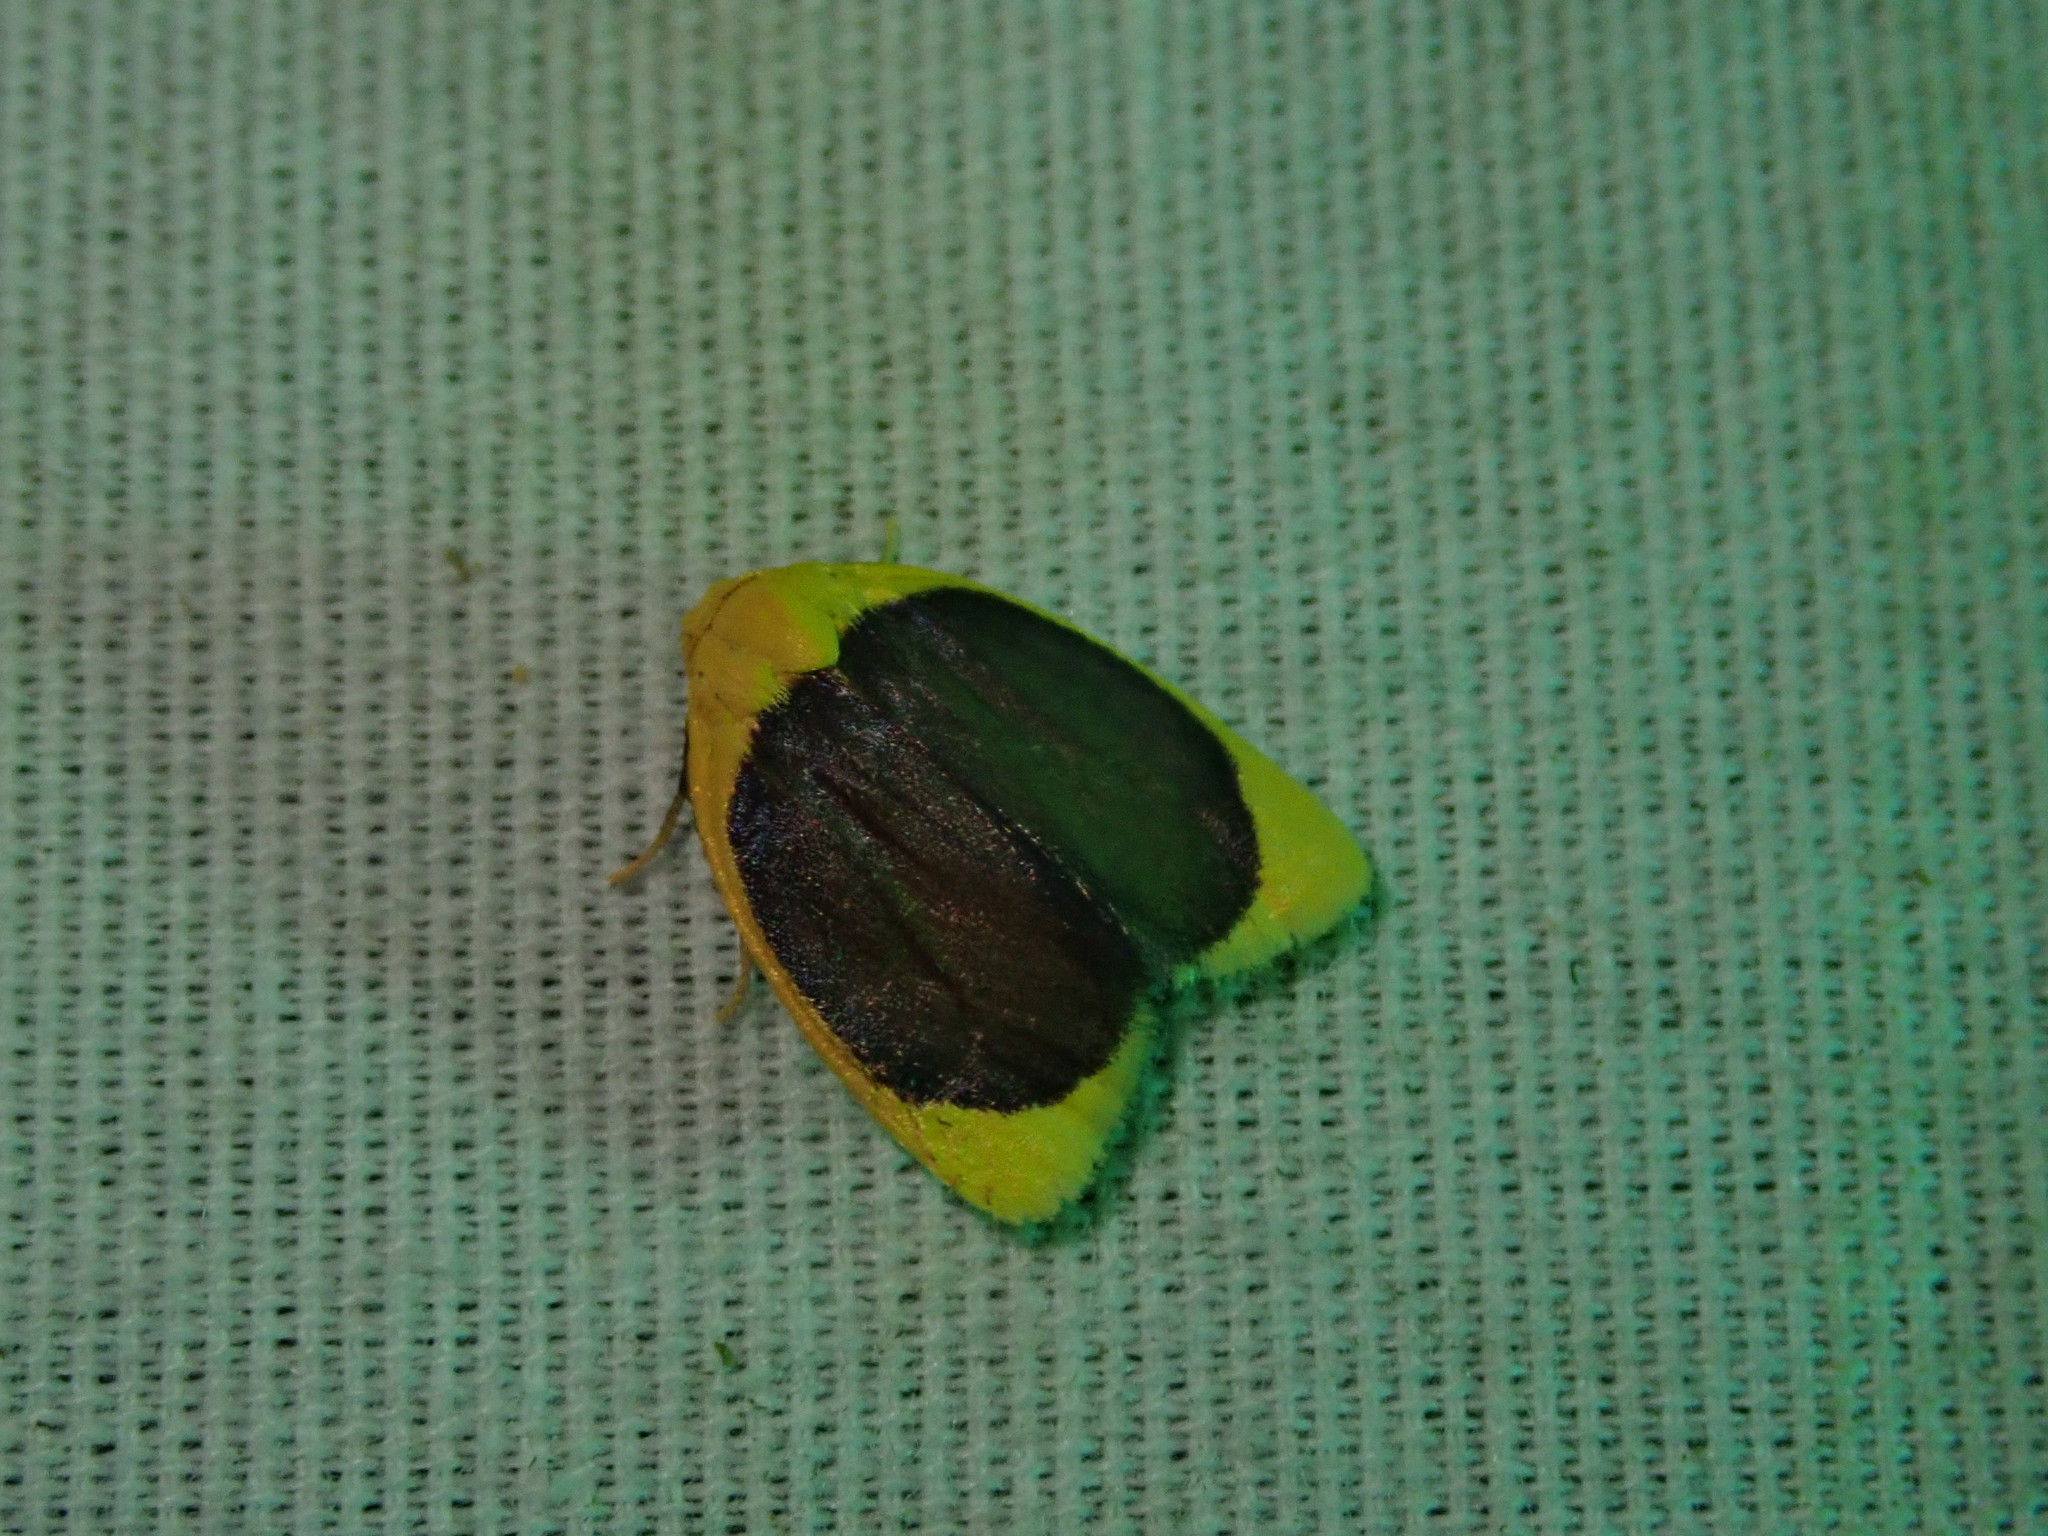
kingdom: Animalia
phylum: Arthropoda
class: Insecta
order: Lepidoptera
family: Erebidae
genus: Pronola
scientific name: Pronola magniplaga
